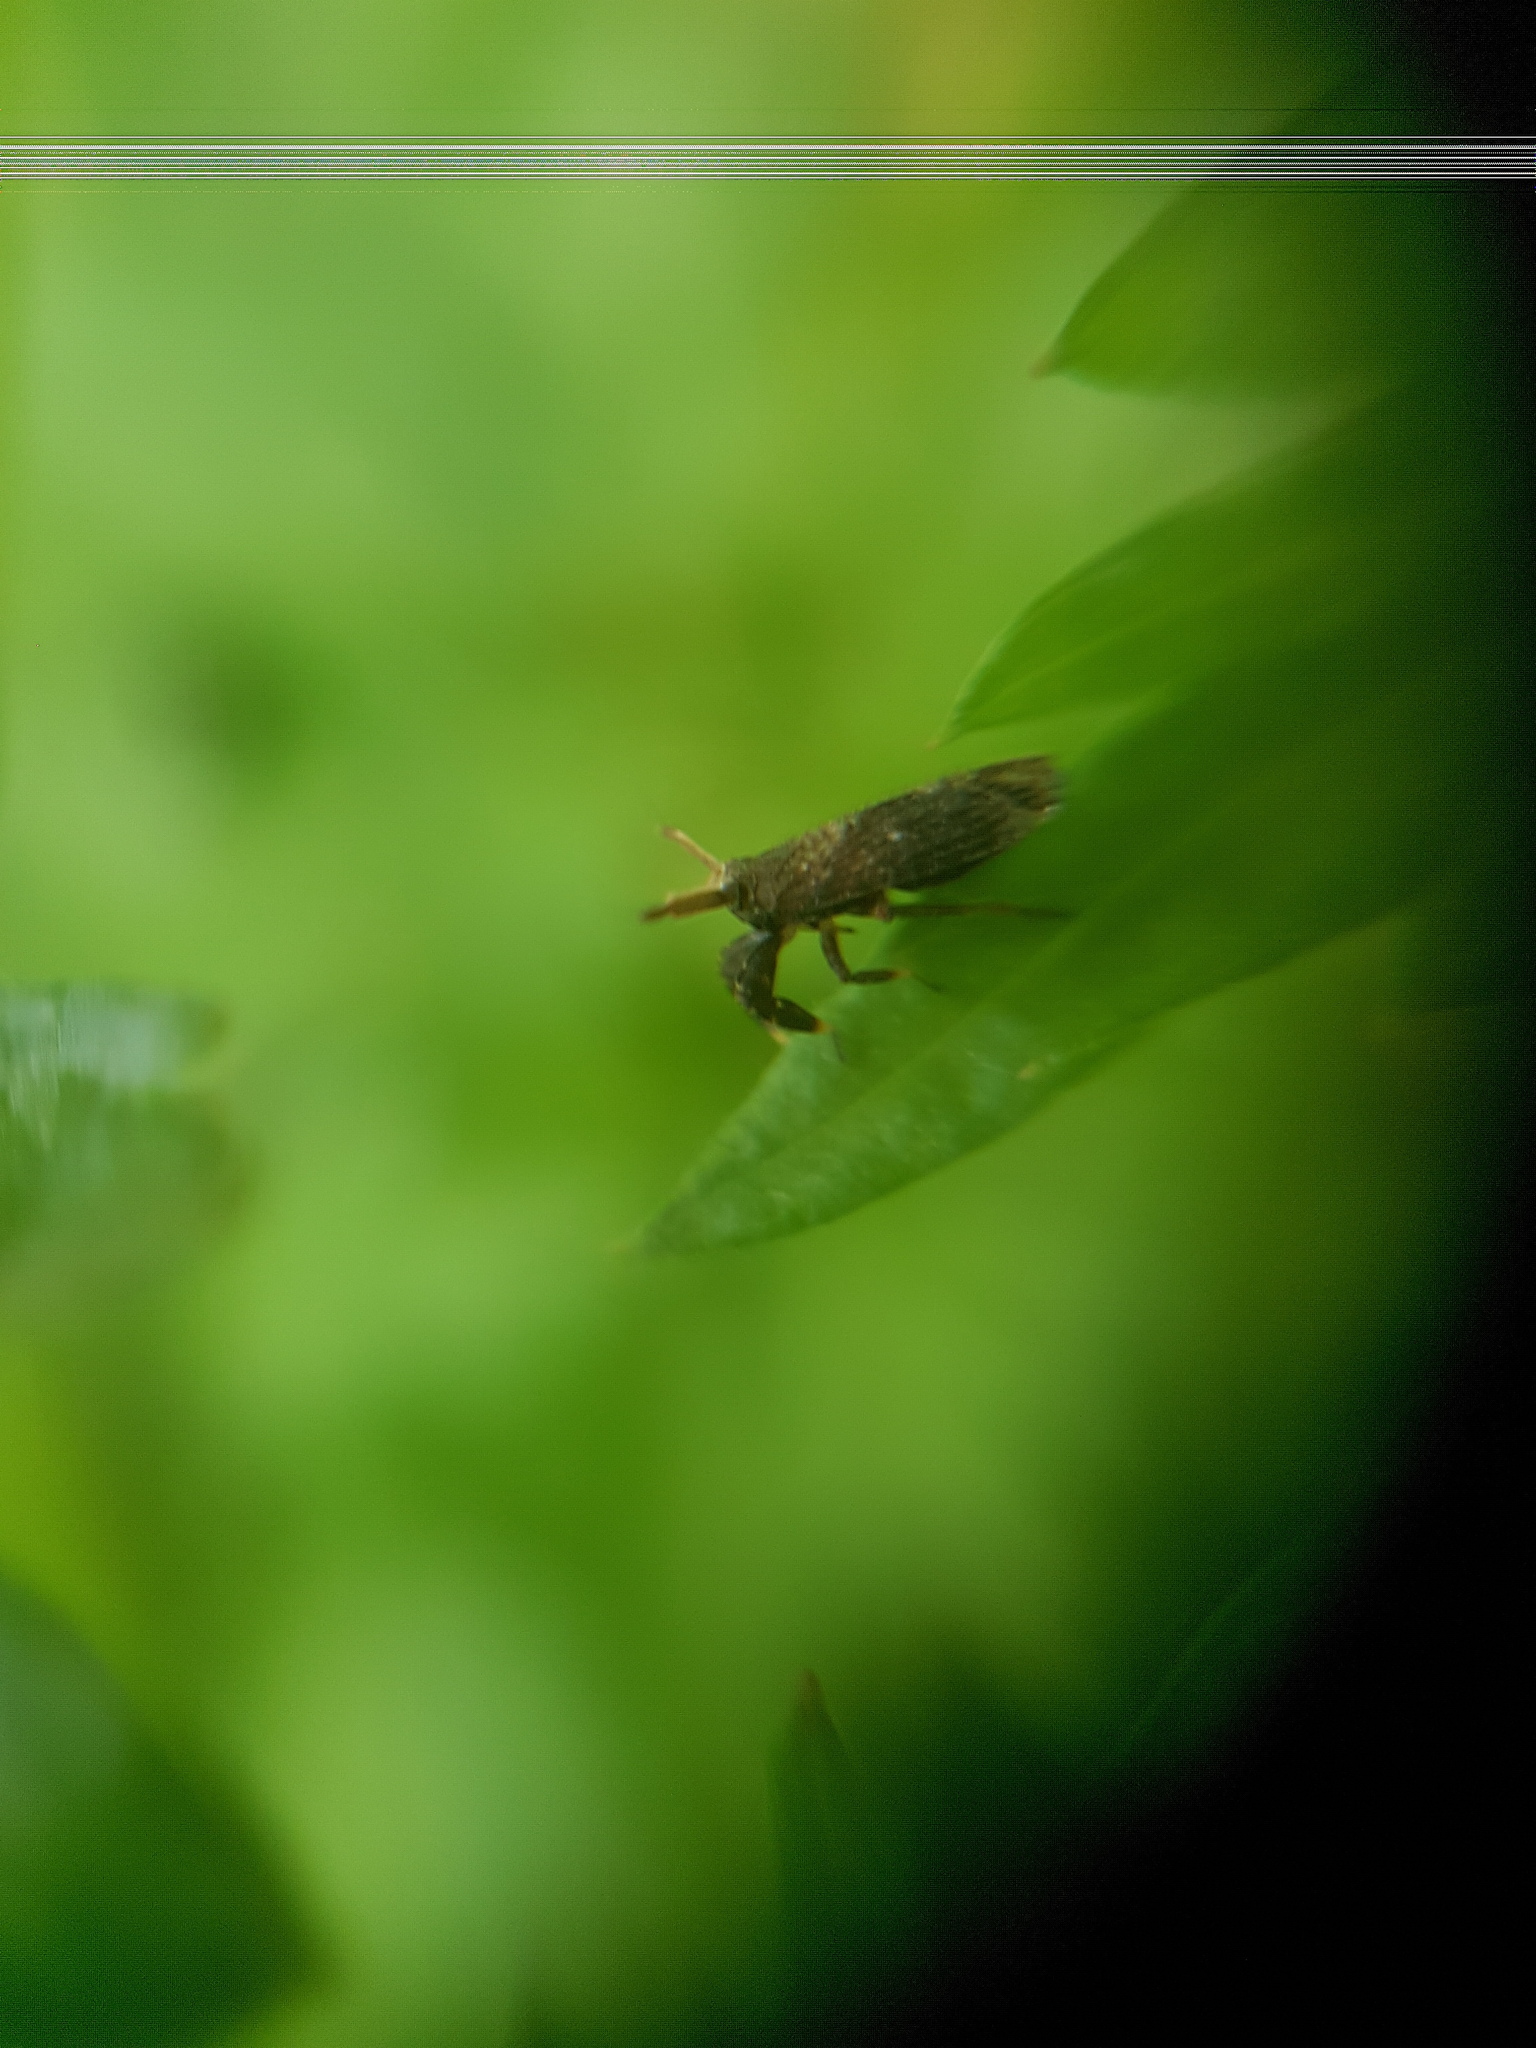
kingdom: Animalia
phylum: Arthropoda
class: Insecta
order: Hemiptera
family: Delphacidae
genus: Asiraca
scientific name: Asiraca clavicornis
